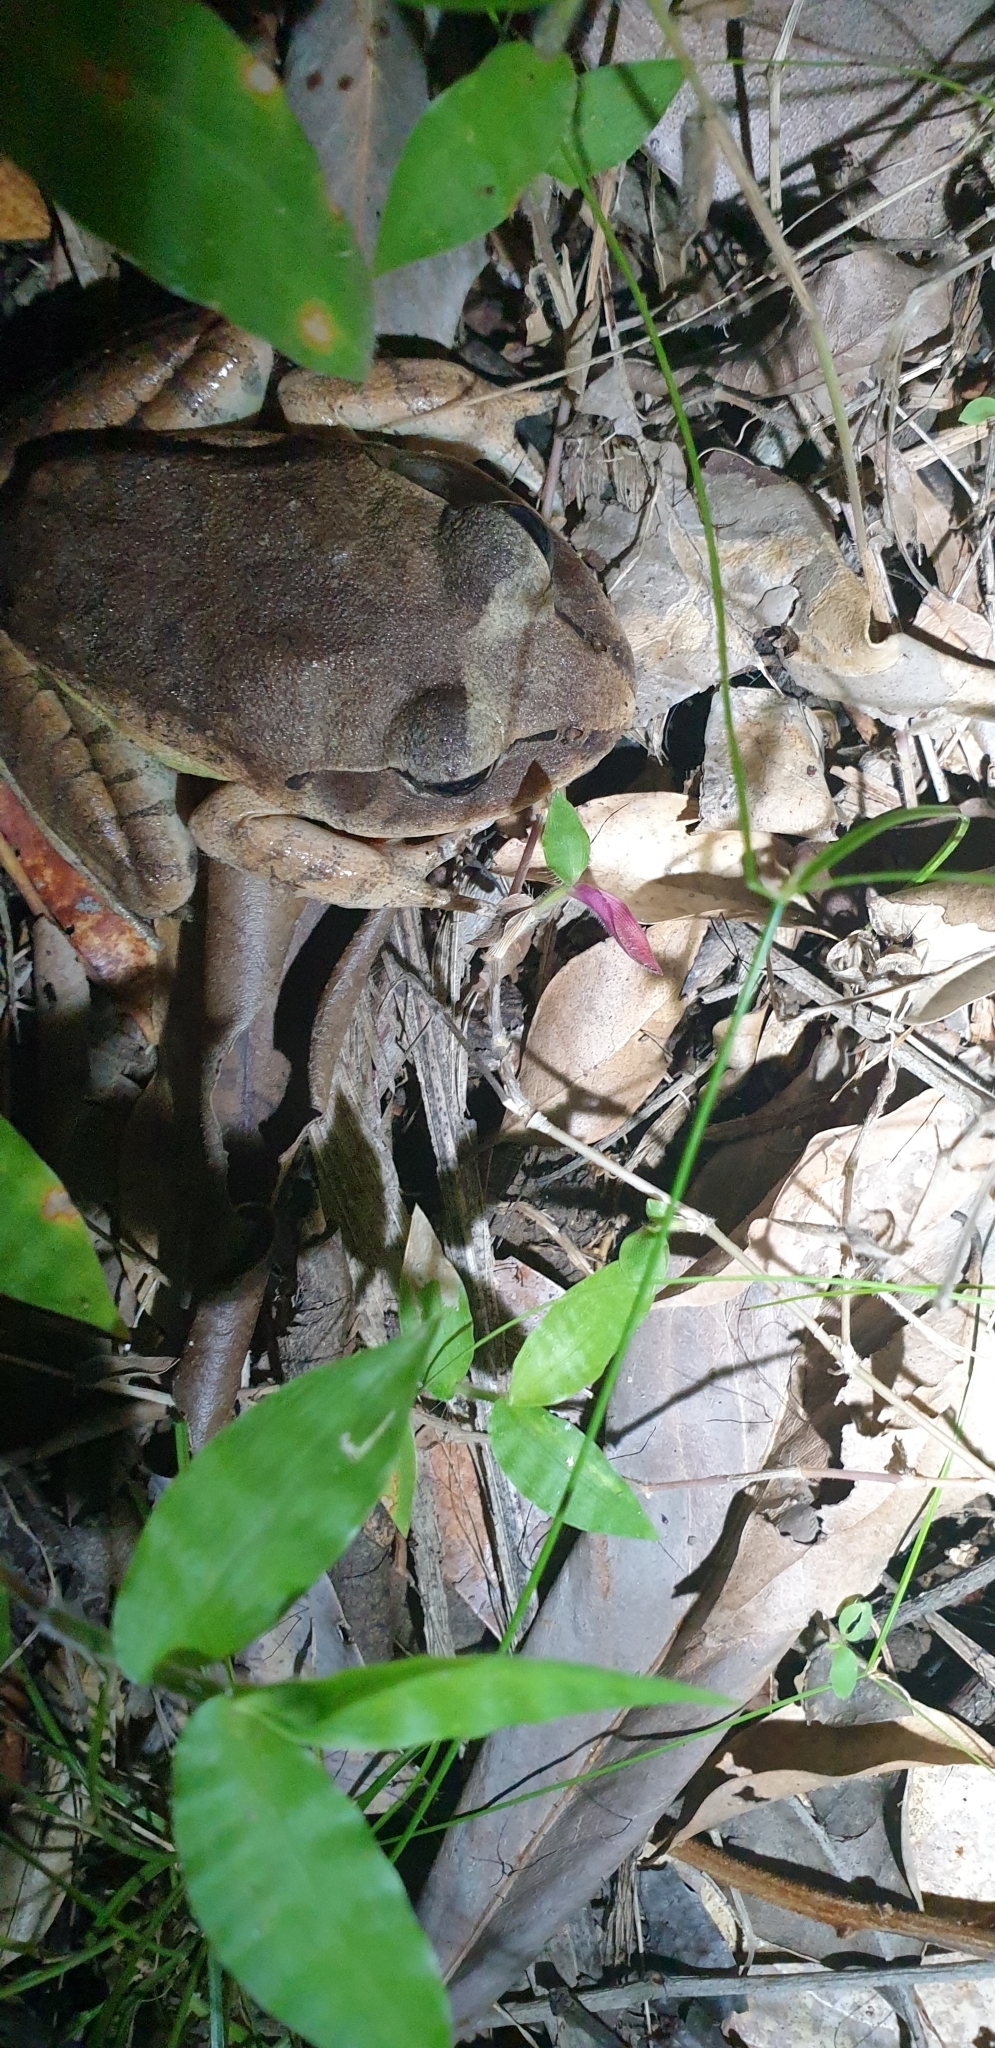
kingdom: Animalia
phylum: Chordata
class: Amphibia
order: Anura
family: Myobatrachidae
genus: Mixophyes
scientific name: Mixophyes fasciolatus
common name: Great barred river-frog
